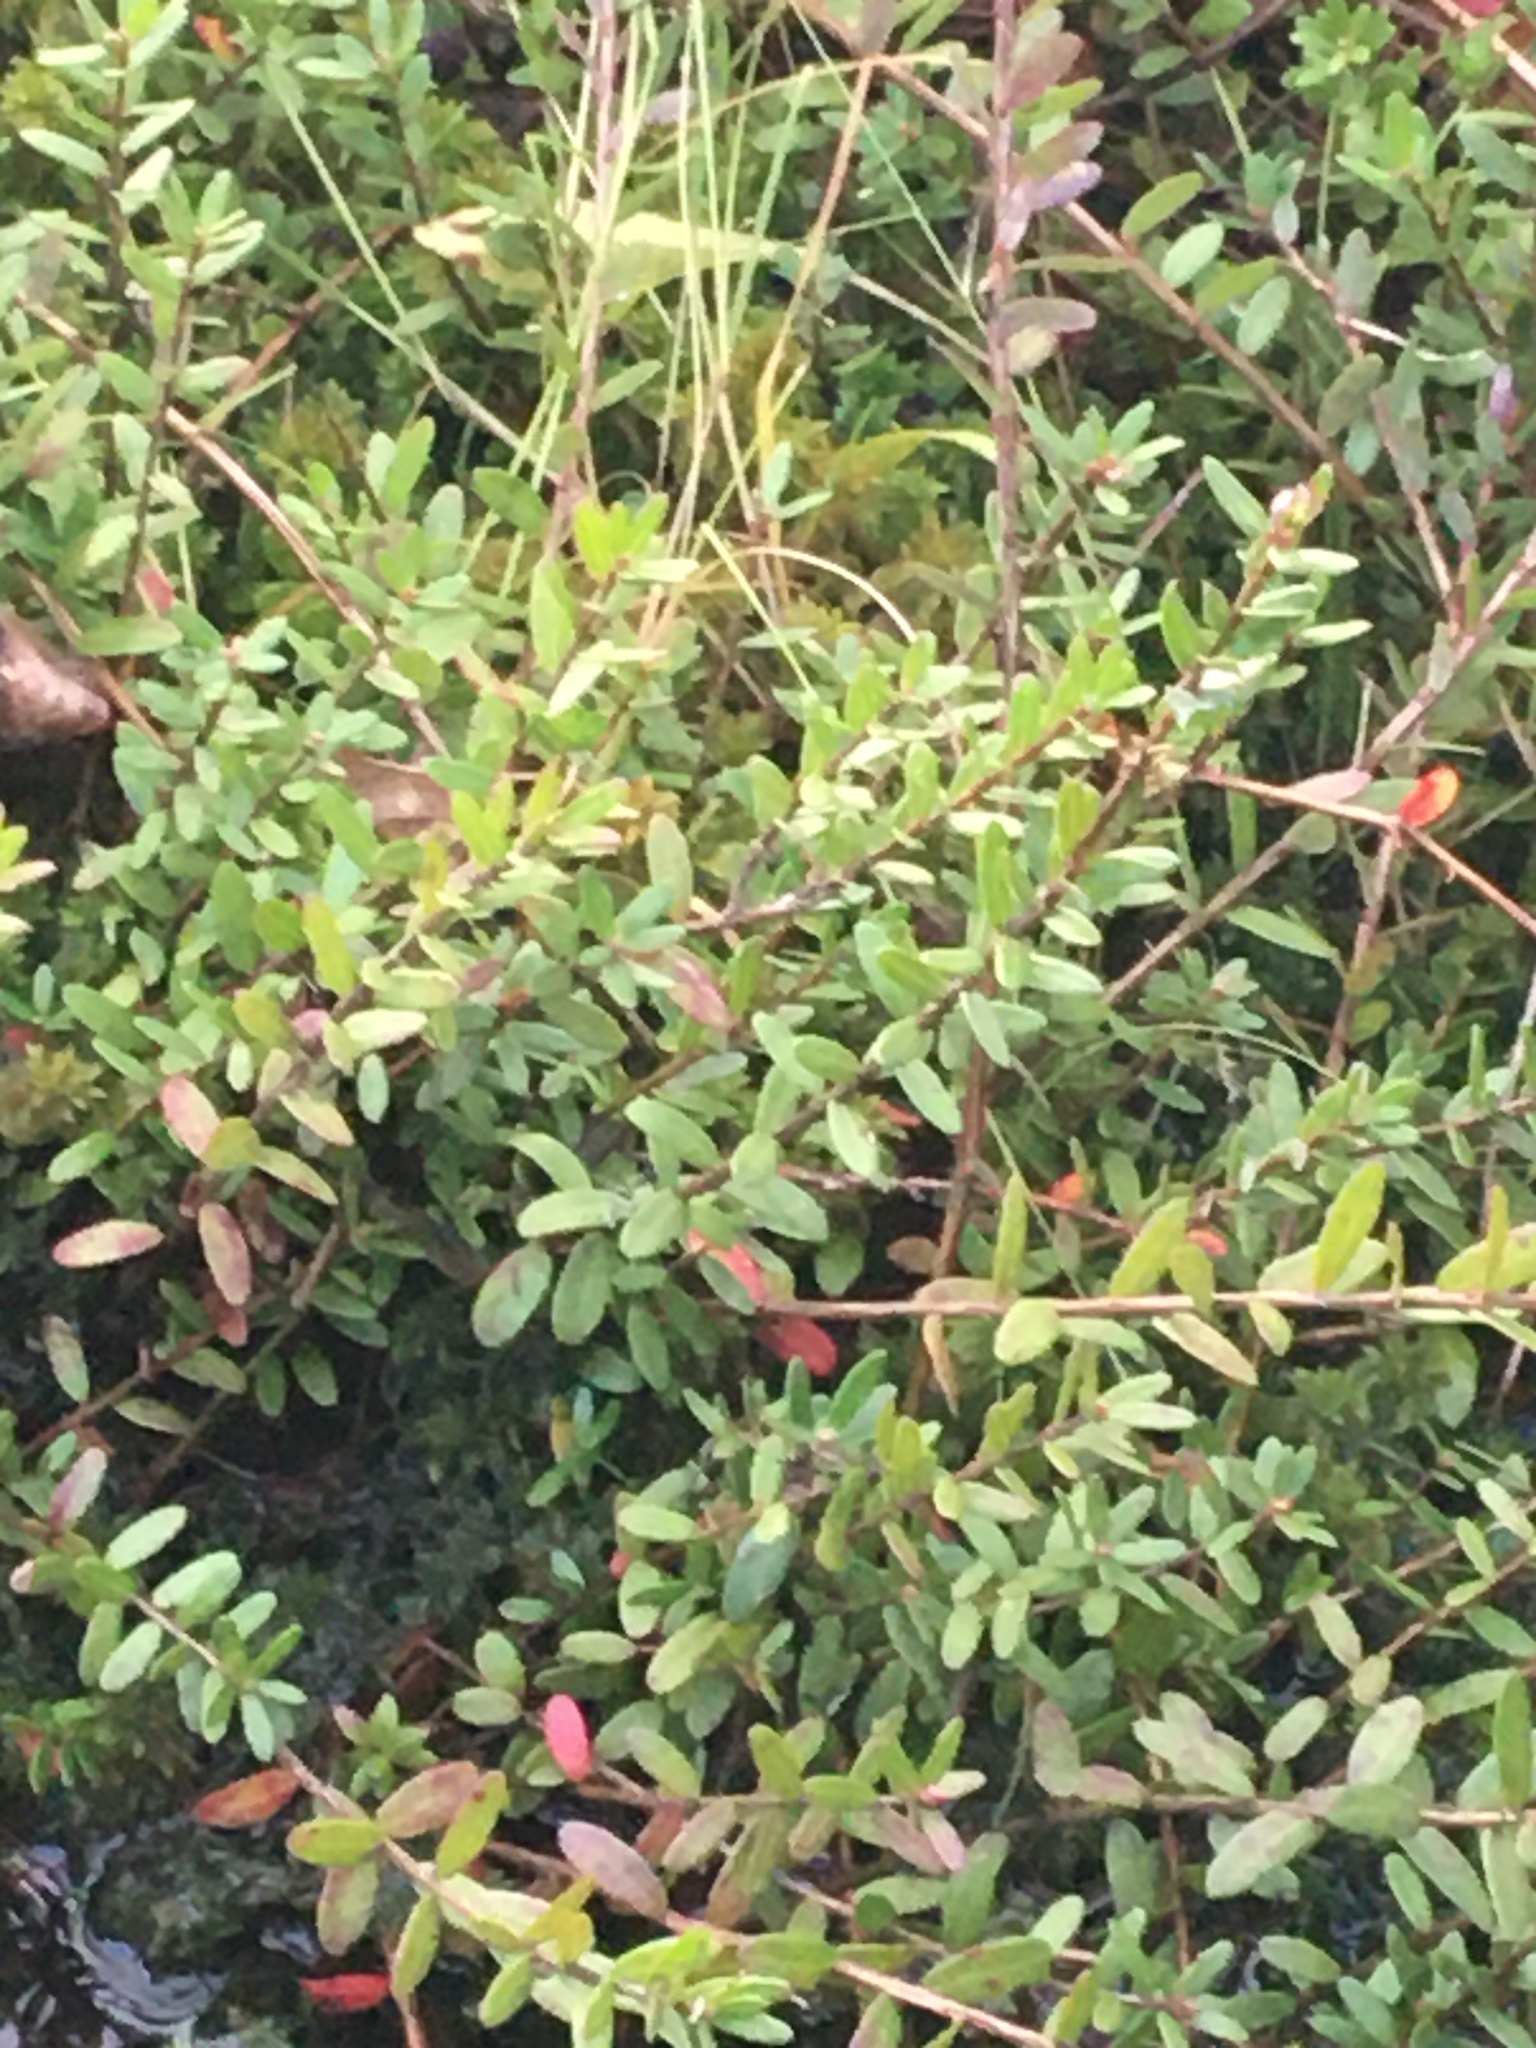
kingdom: Plantae
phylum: Tracheophyta
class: Magnoliopsida
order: Ericales
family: Ericaceae
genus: Vaccinium
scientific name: Vaccinium macrocarpon
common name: American cranberry
